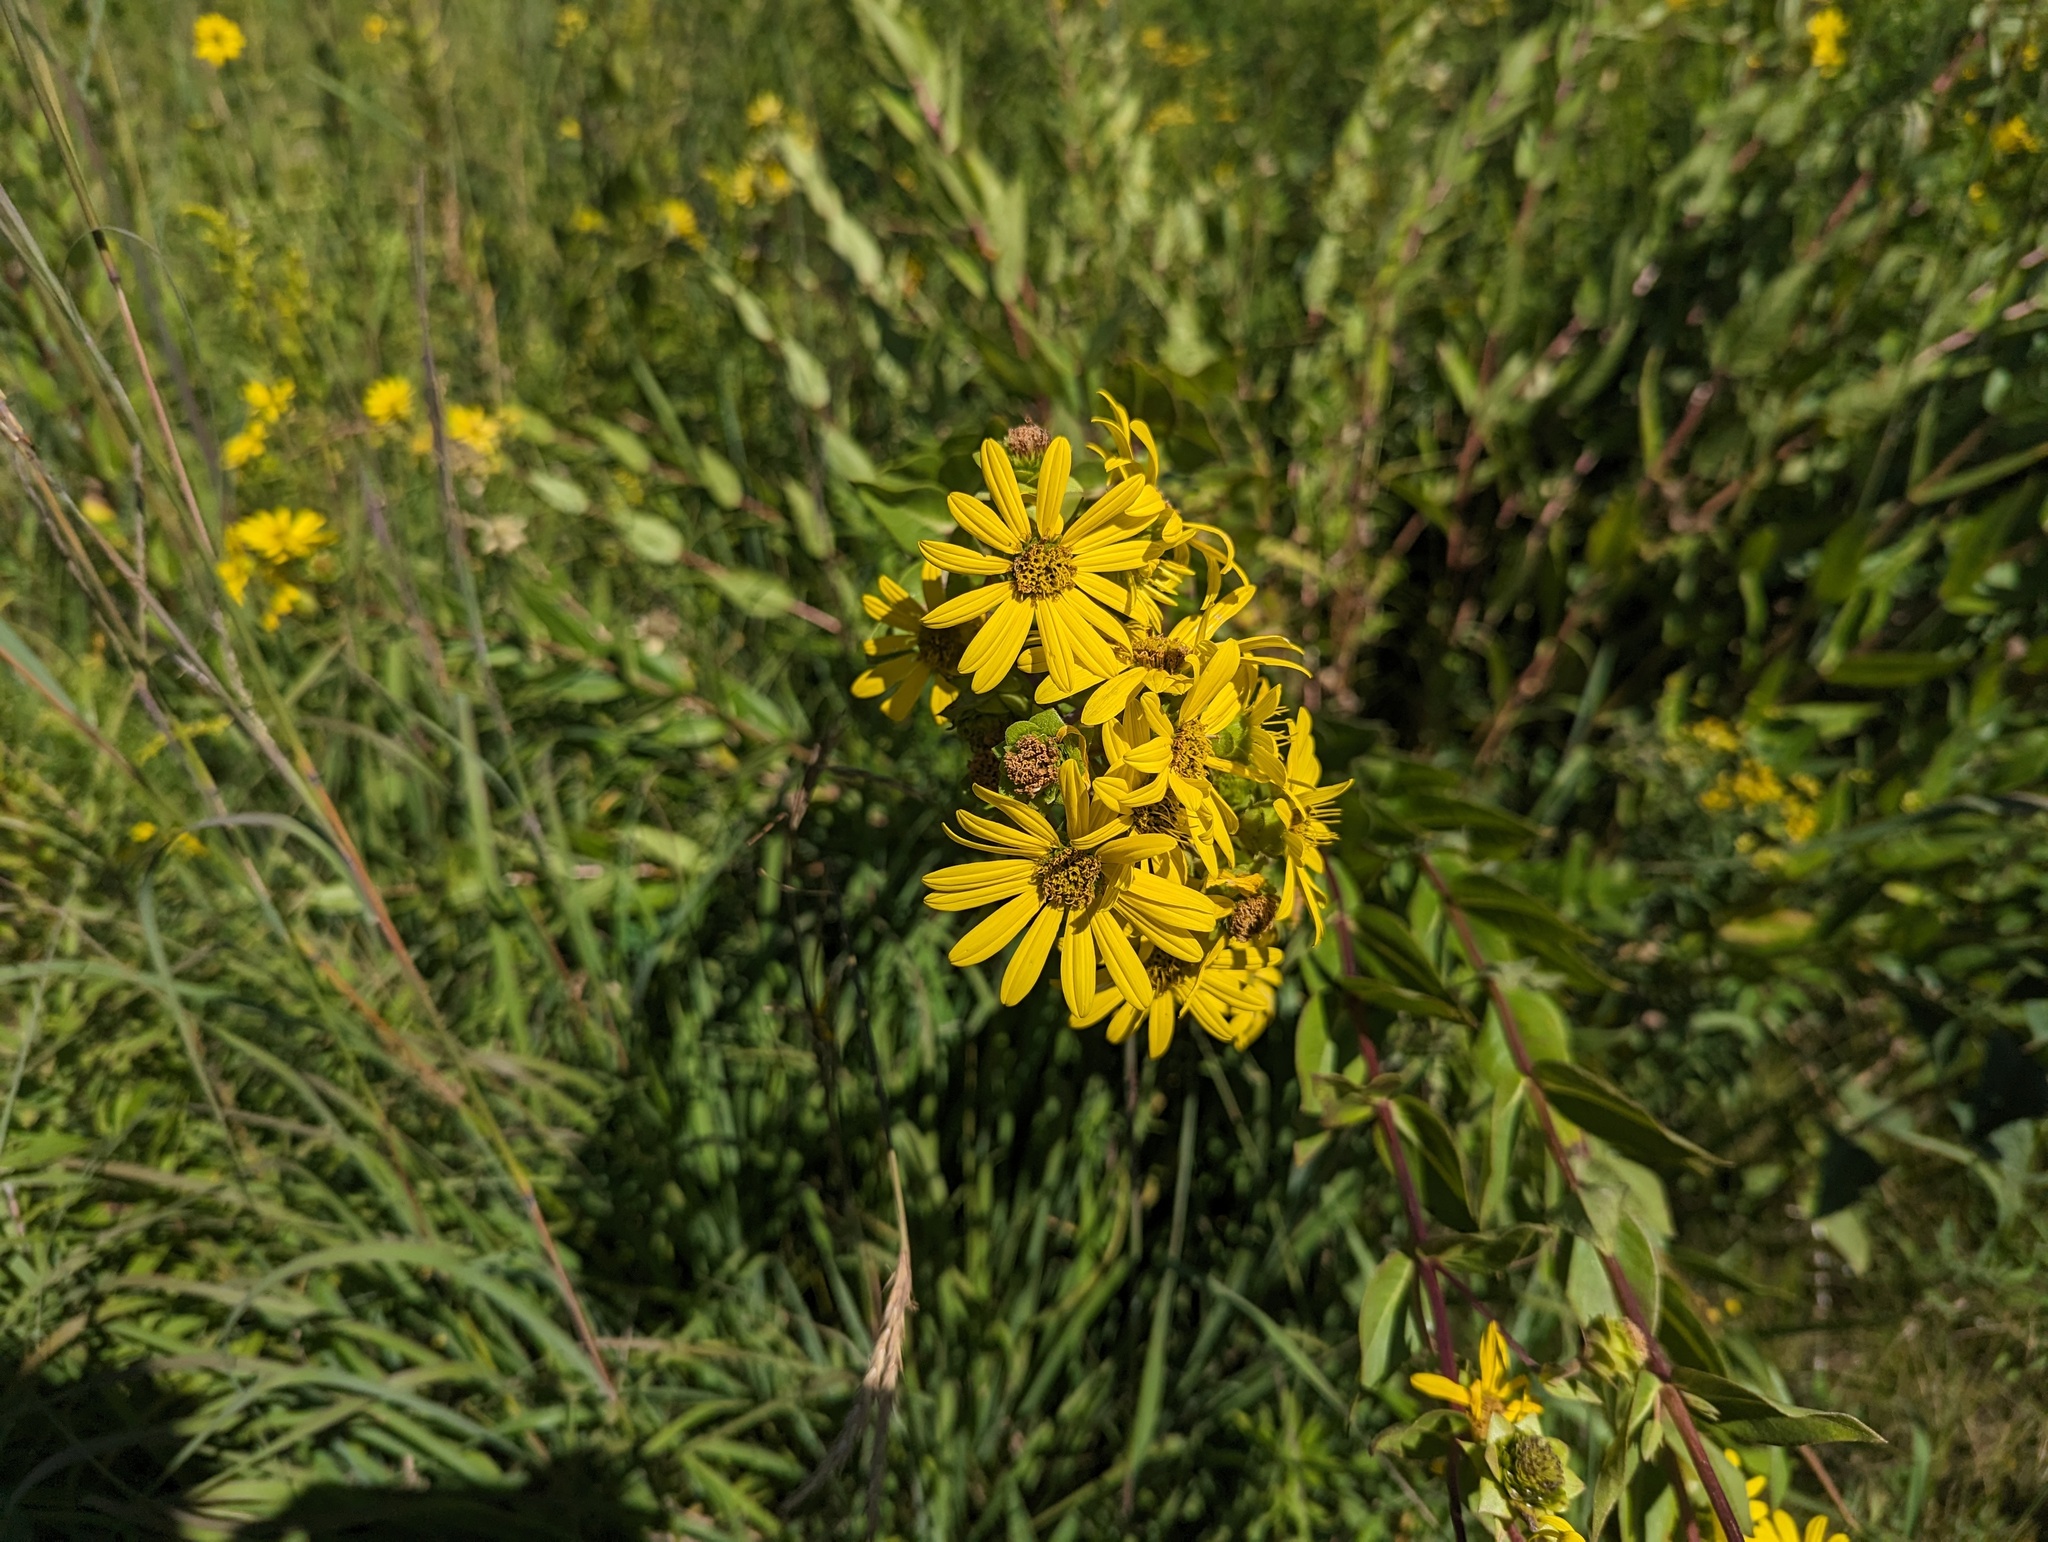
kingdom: Plantae
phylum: Tracheophyta
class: Magnoliopsida
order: Asterales
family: Asteraceae
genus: Silphium
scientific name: Silphium integrifolium
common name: Whole-leaf rosinweed
